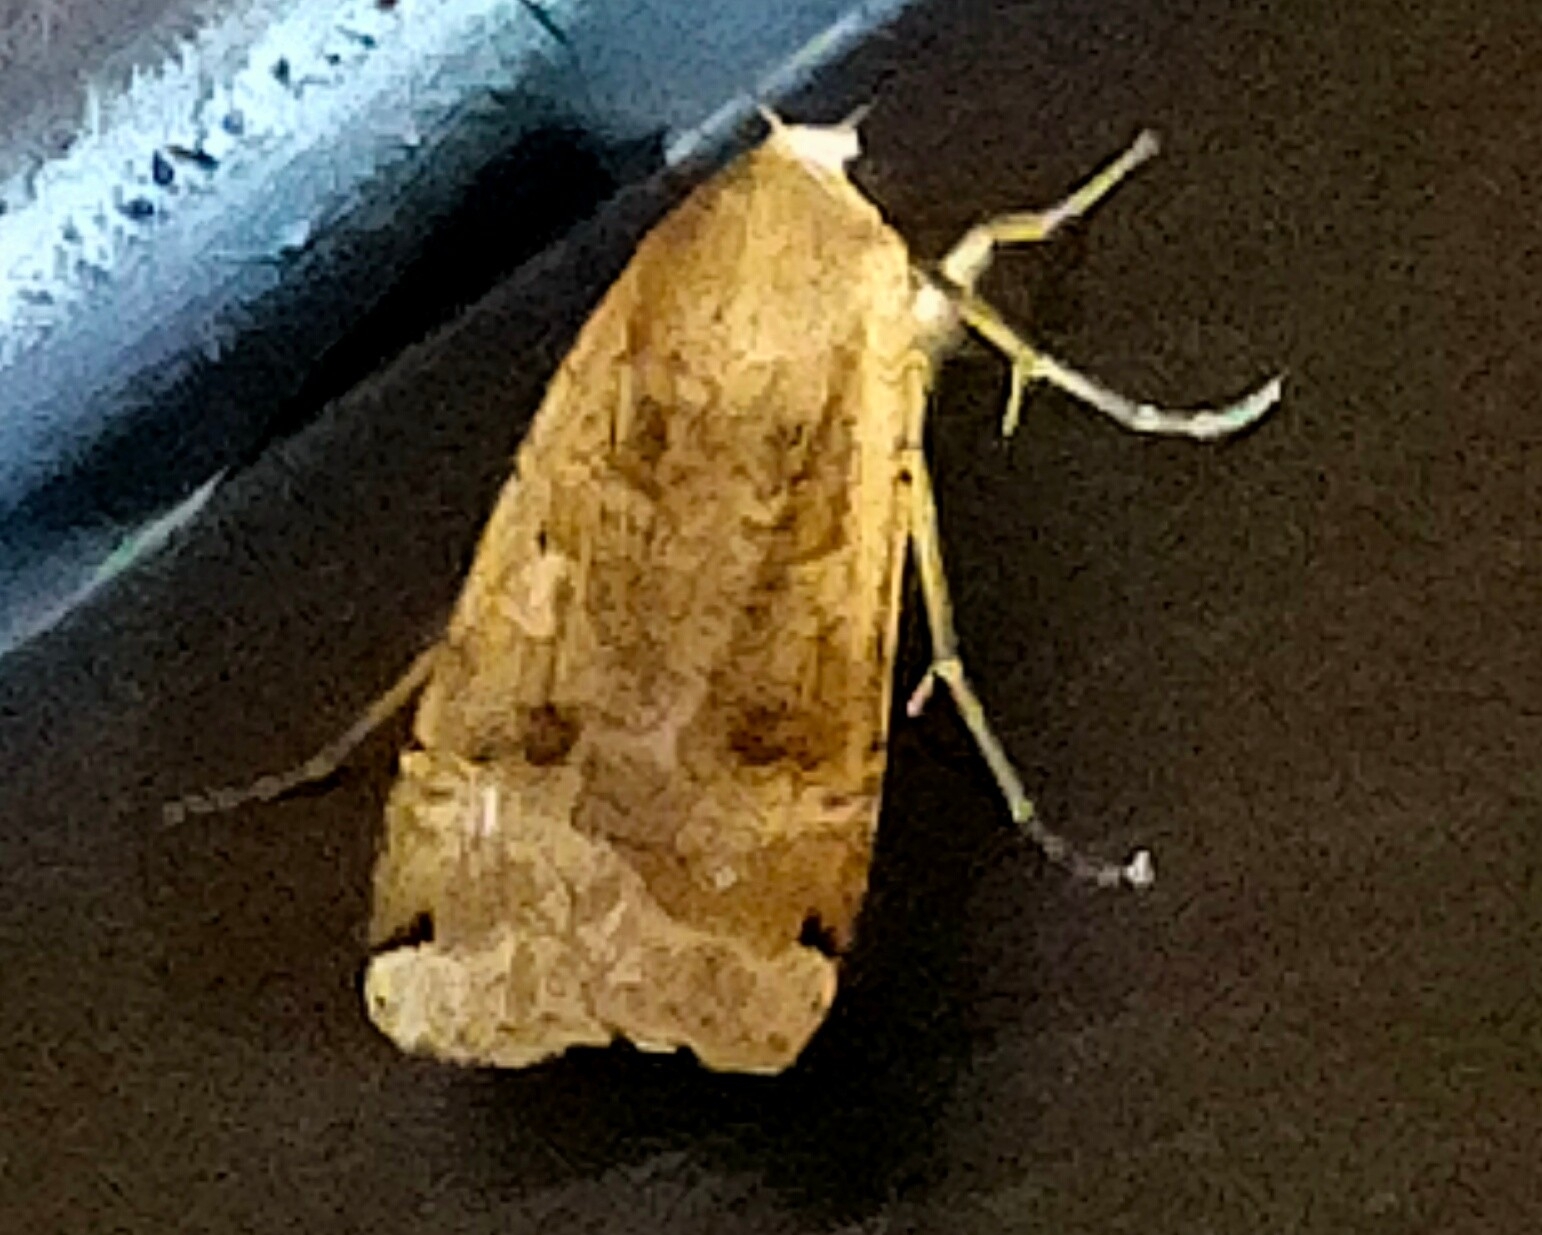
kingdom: Animalia
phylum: Arthropoda
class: Insecta
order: Lepidoptera
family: Noctuidae
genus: Noctua
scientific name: Noctua pronuba
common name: Large yellow underwing
